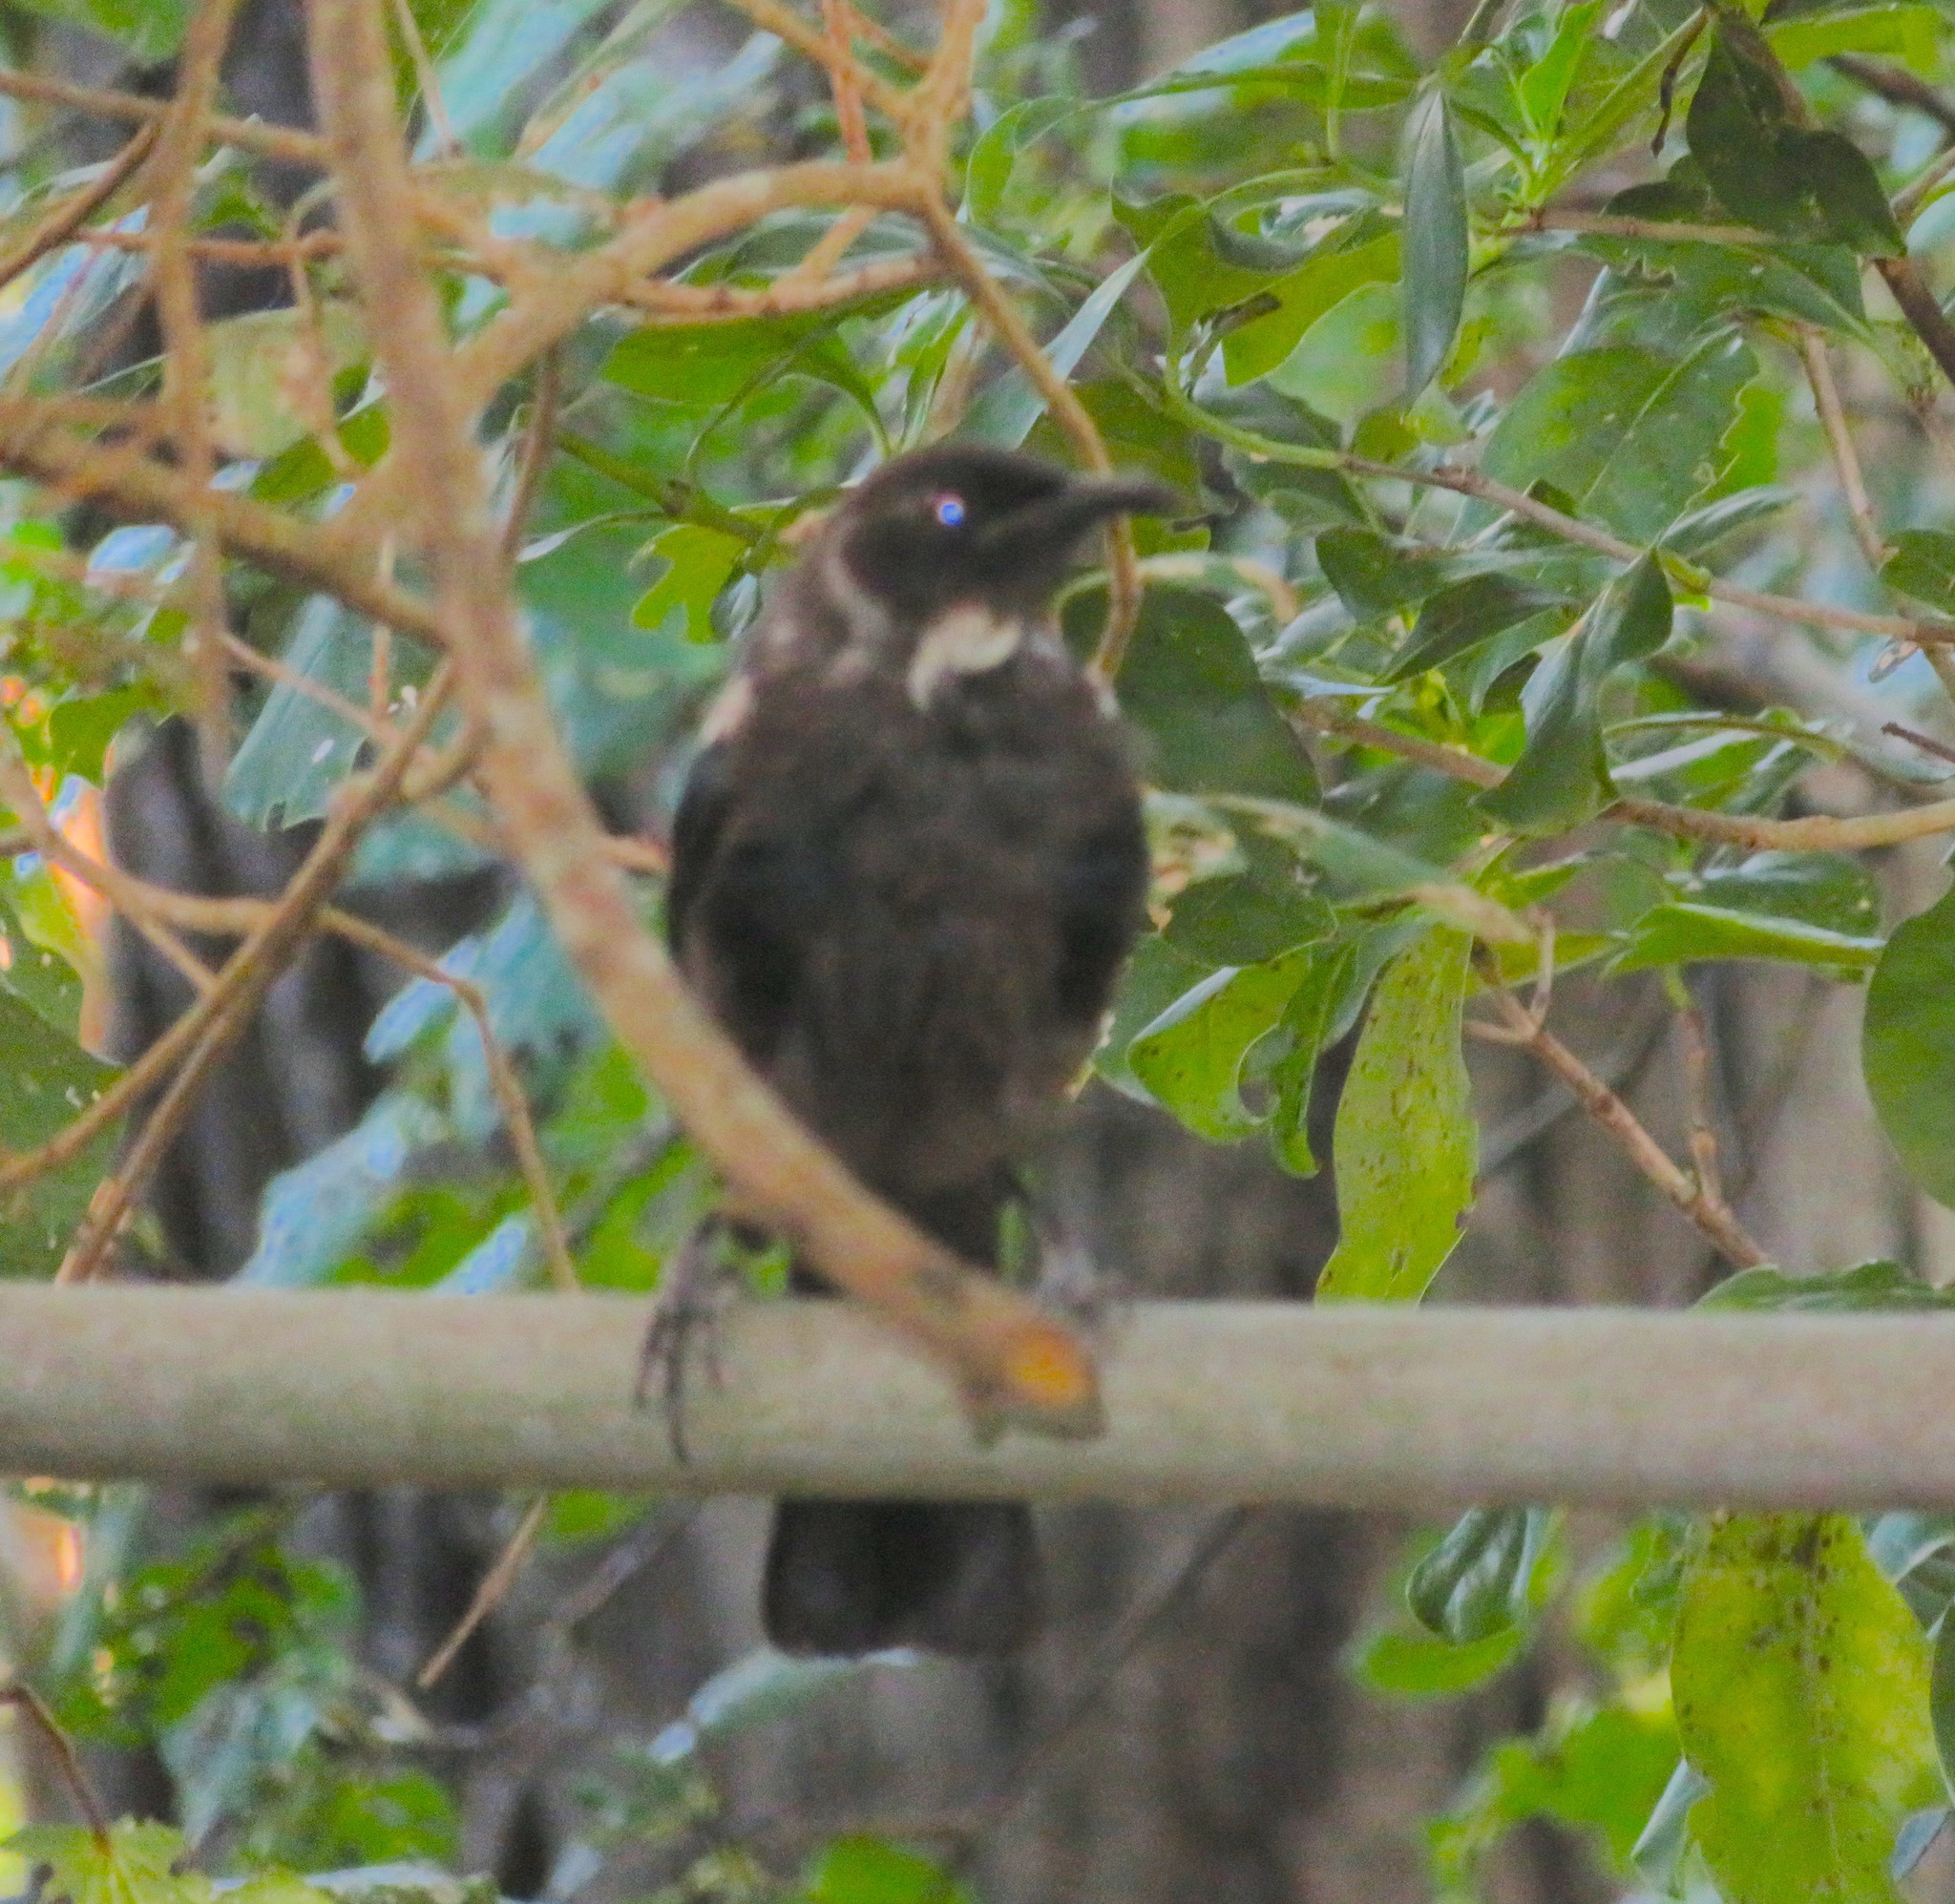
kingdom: Animalia
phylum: Chordata
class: Aves
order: Passeriformes
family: Meliphagidae
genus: Prosthemadera
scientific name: Prosthemadera novaeseelandiae
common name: Tui
